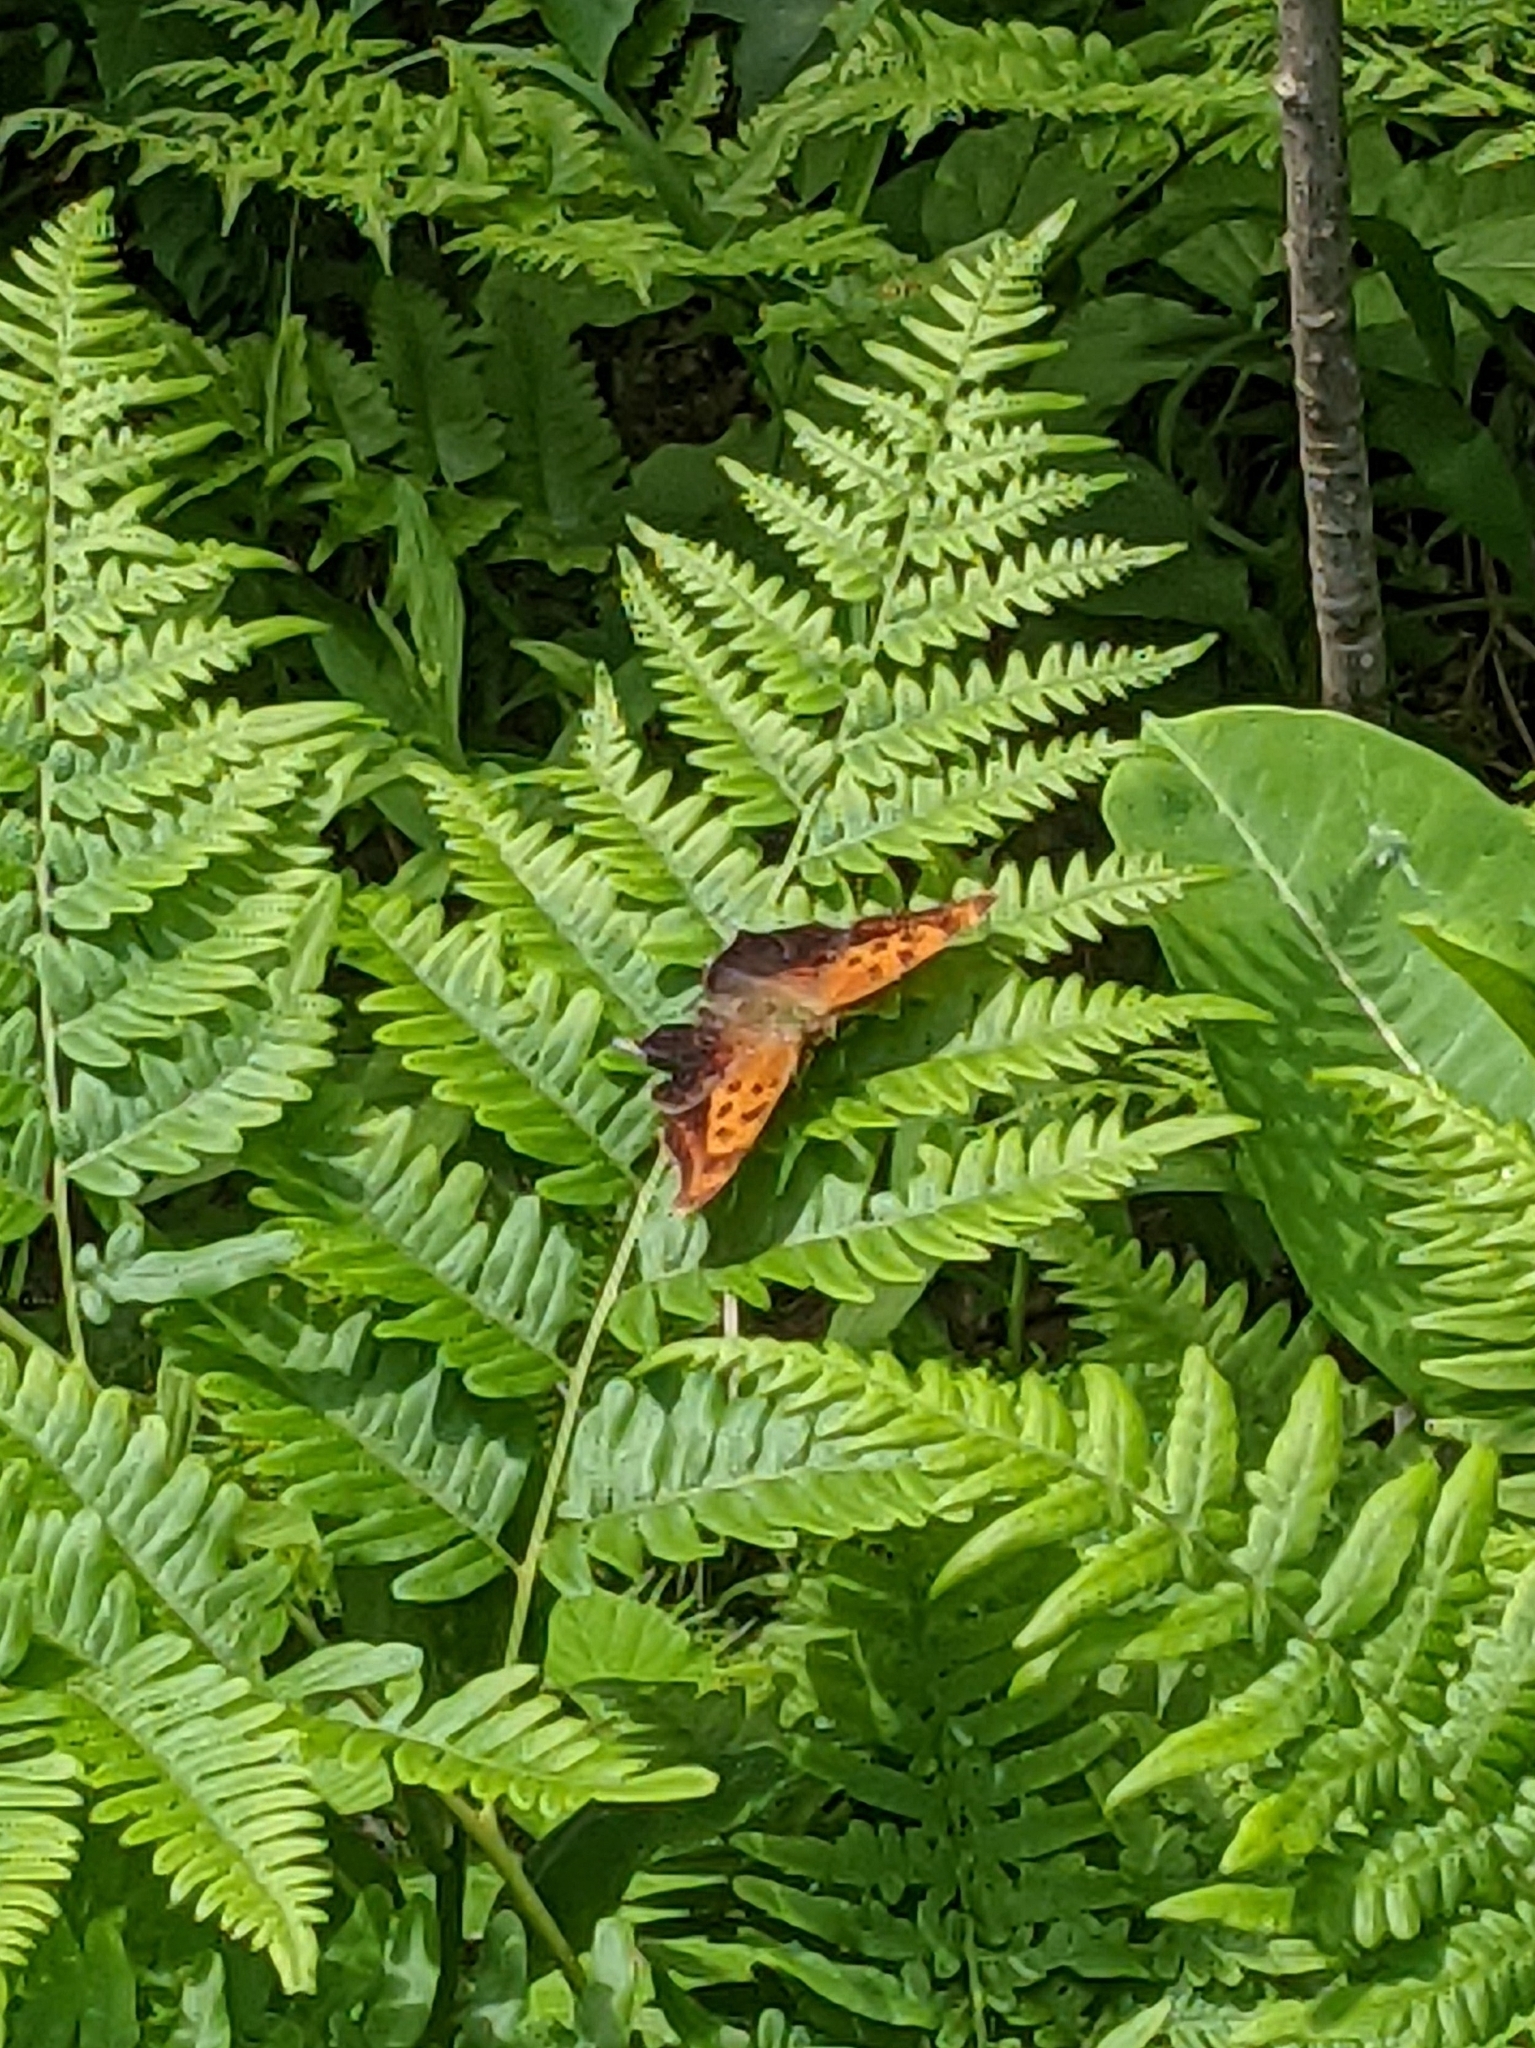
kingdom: Animalia
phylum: Arthropoda
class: Insecta
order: Lepidoptera
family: Nymphalidae
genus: Polygonia
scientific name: Polygonia interrogationis
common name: Question mark
